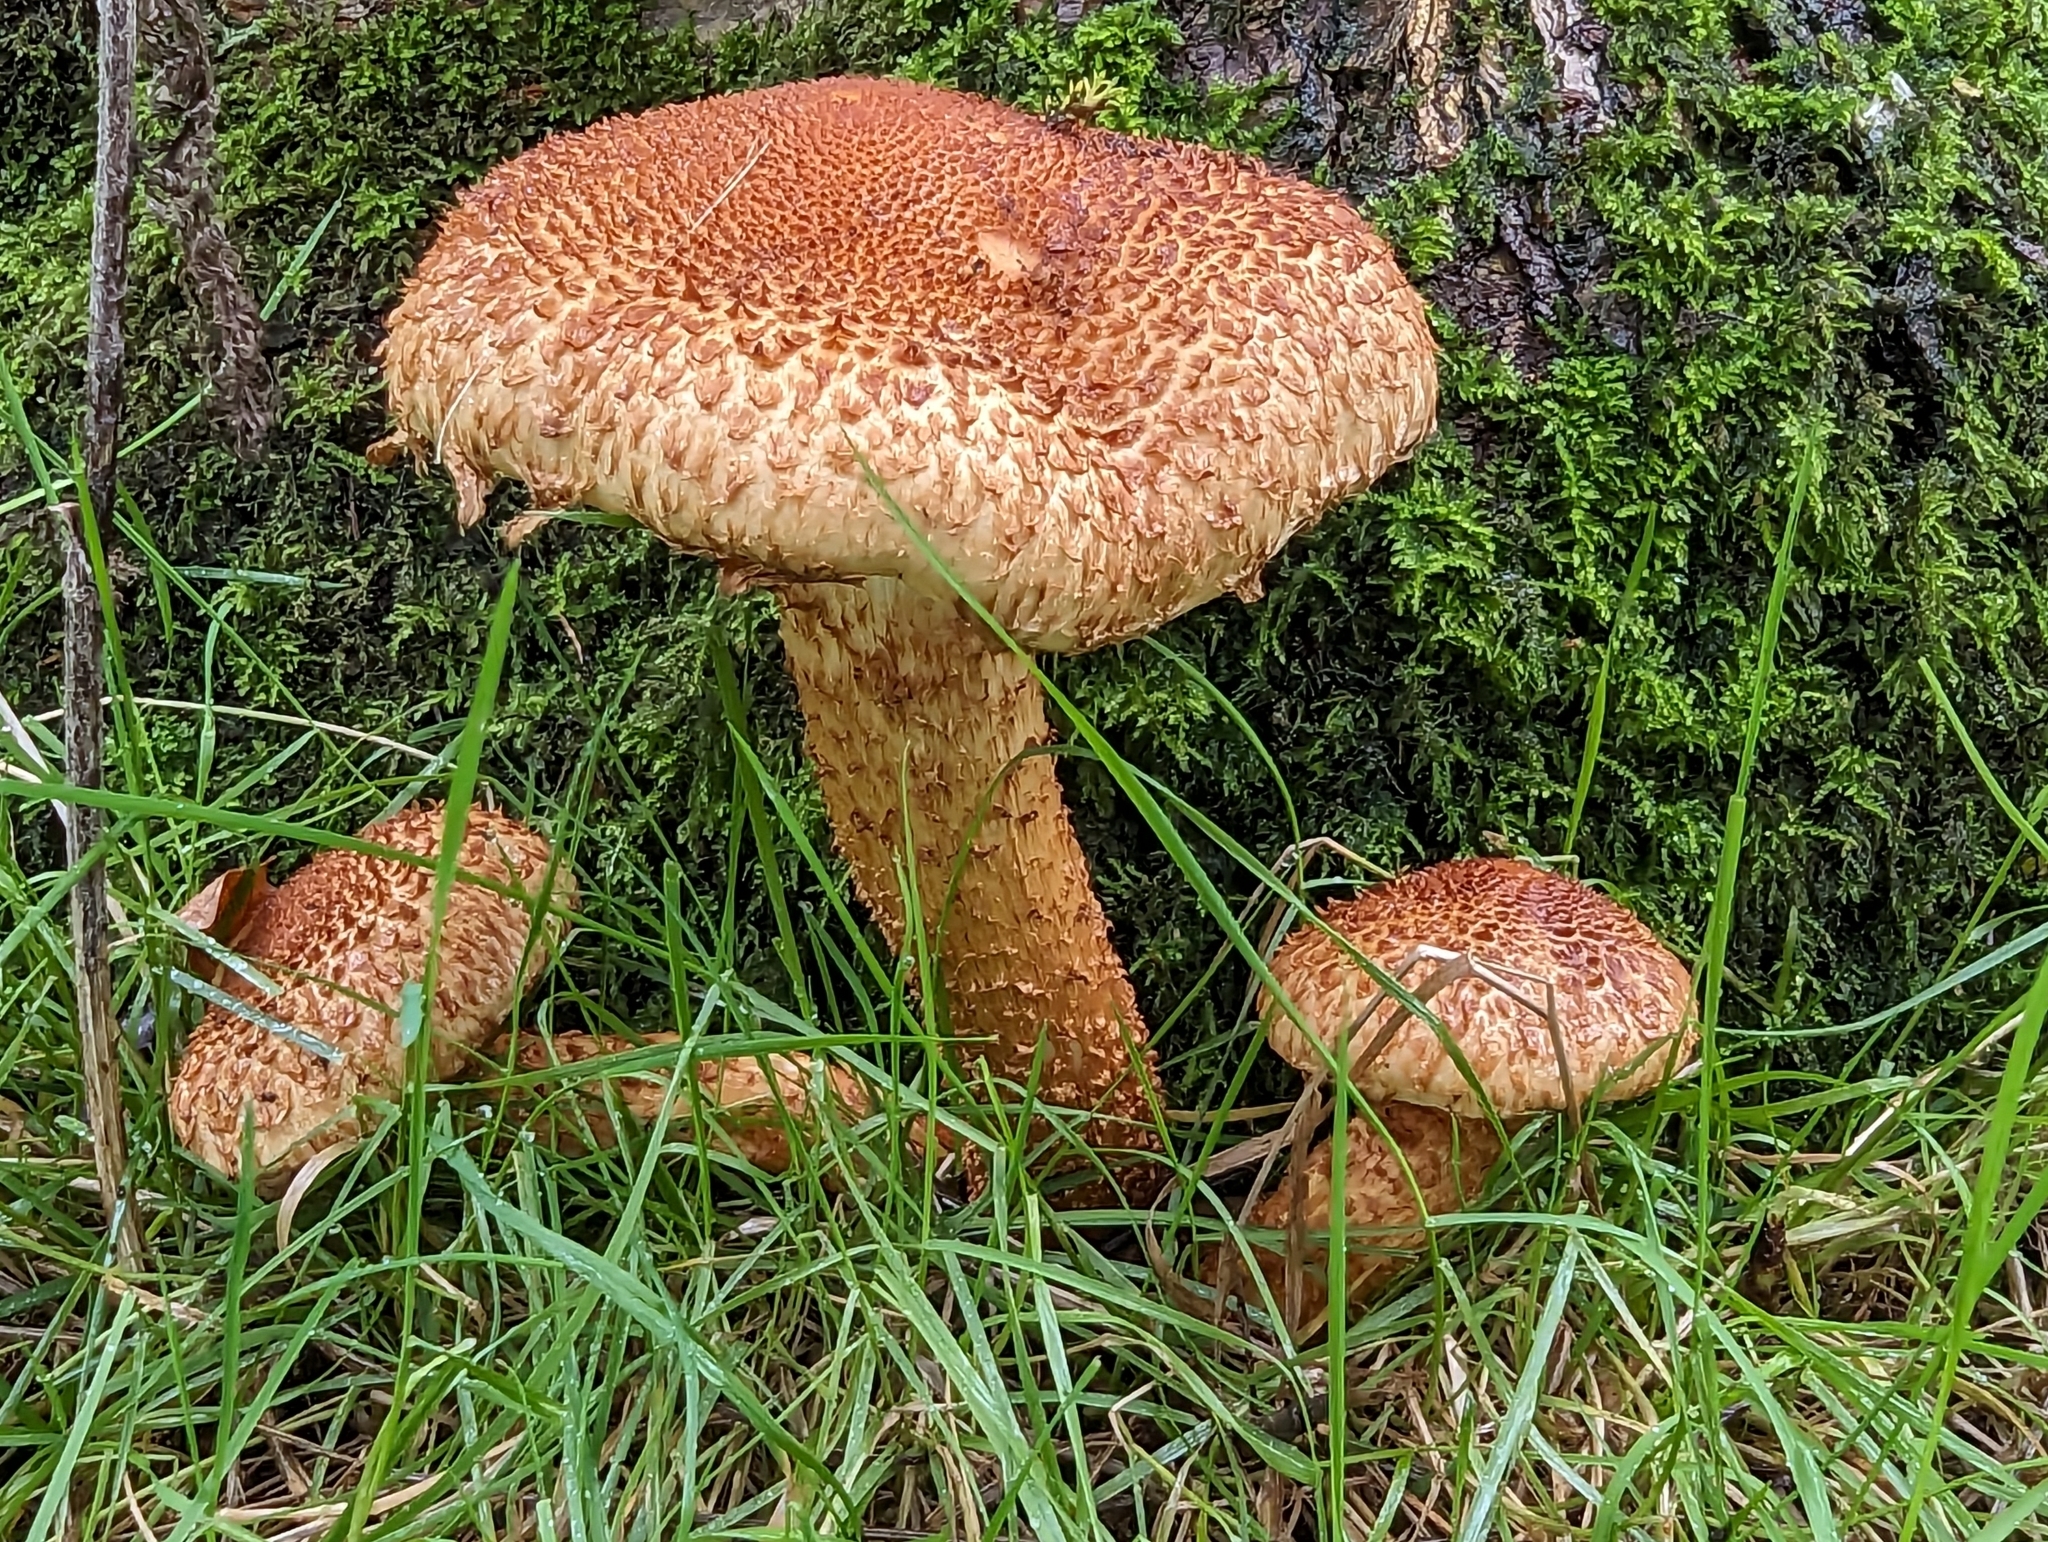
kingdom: Fungi
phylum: Basidiomycota
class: Agaricomycetes
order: Agaricales
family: Strophariaceae
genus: Pholiota
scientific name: Pholiota squarrosa
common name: Shaggy pholiota
